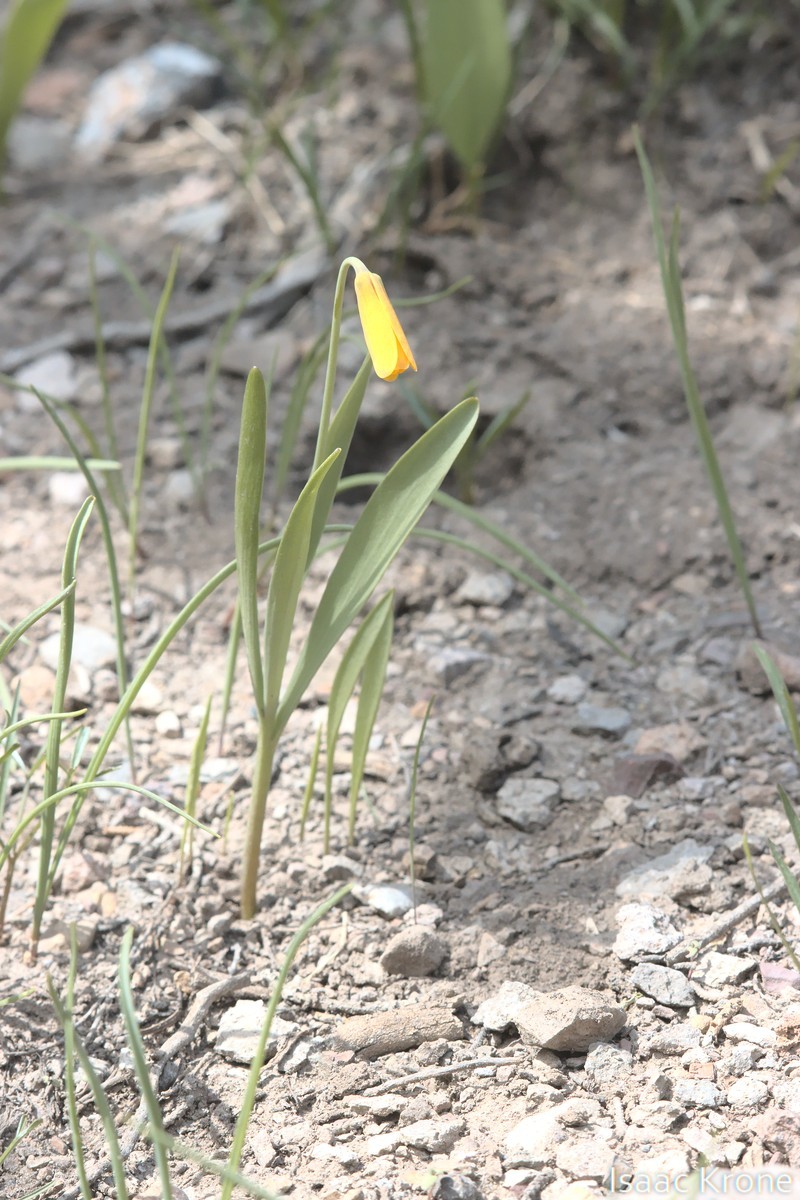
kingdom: Plantae
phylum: Tracheophyta
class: Liliopsida
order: Liliales
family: Liliaceae
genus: Fritillaria
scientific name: Fritillaria pudica
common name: Yellow fritillary
